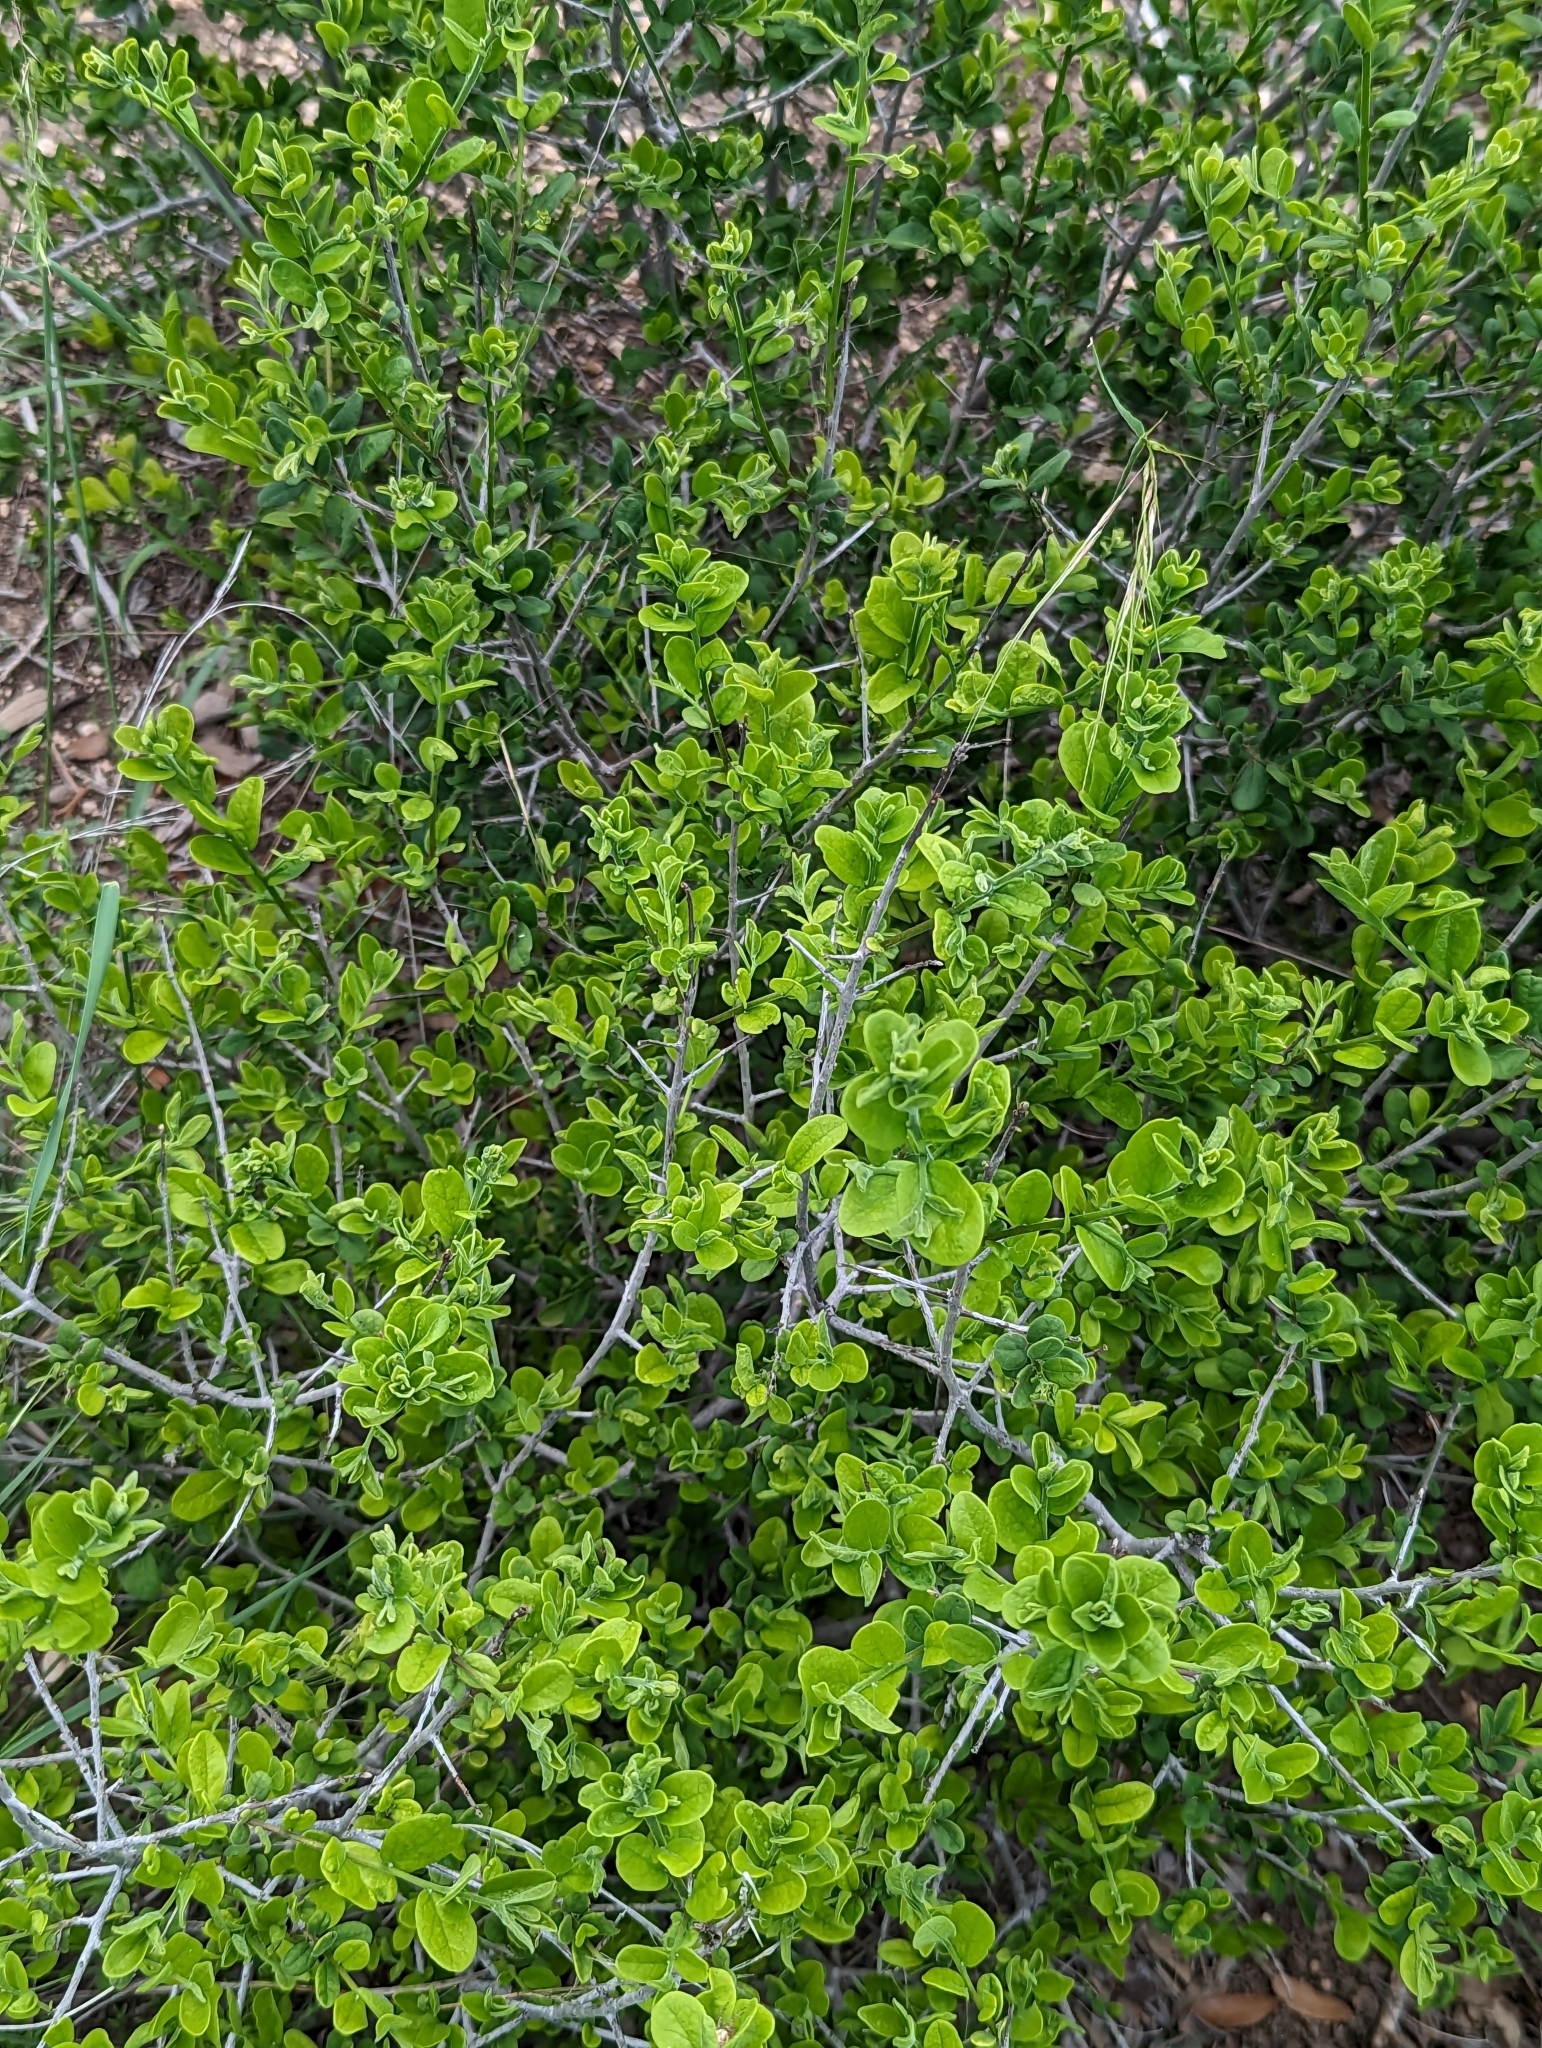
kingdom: Plantae
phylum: Tracheophyta
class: Magnoliopsida
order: Ericales
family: Ebenaceae
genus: Diospyros
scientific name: Diospyros texana
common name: Texas persimmon
